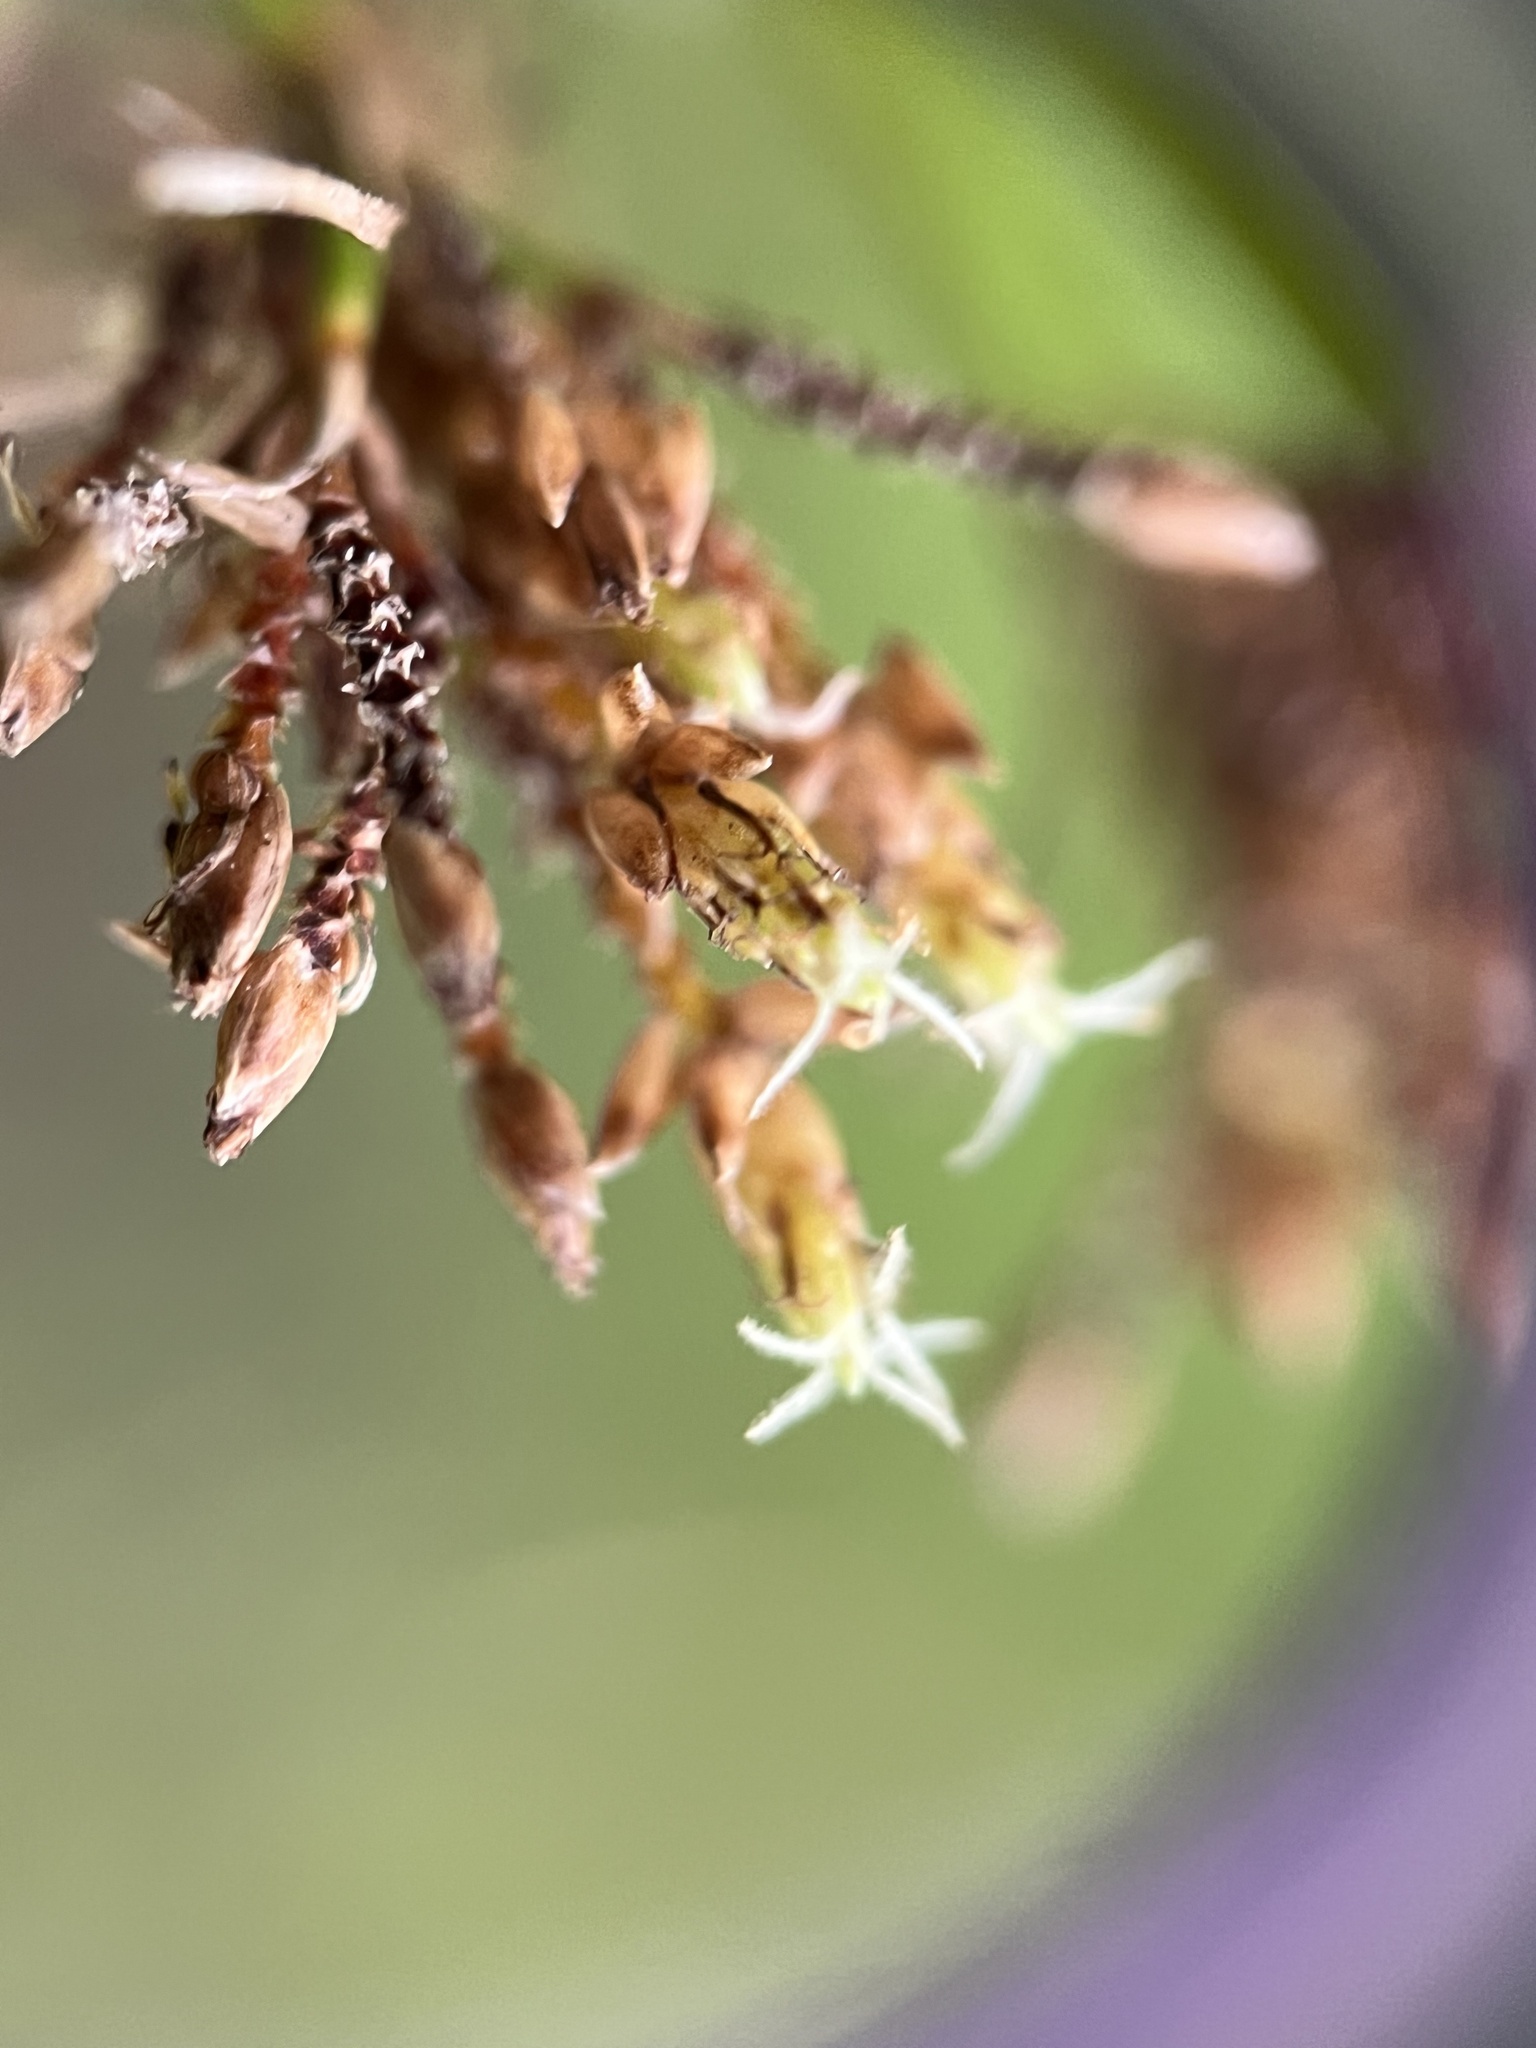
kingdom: Plantae
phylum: Tracheophyta
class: Liliopsida
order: Poales
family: Cyperaceae
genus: Fimbristylis
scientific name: Fimbristylis dichotoma
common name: Forked fimbry
